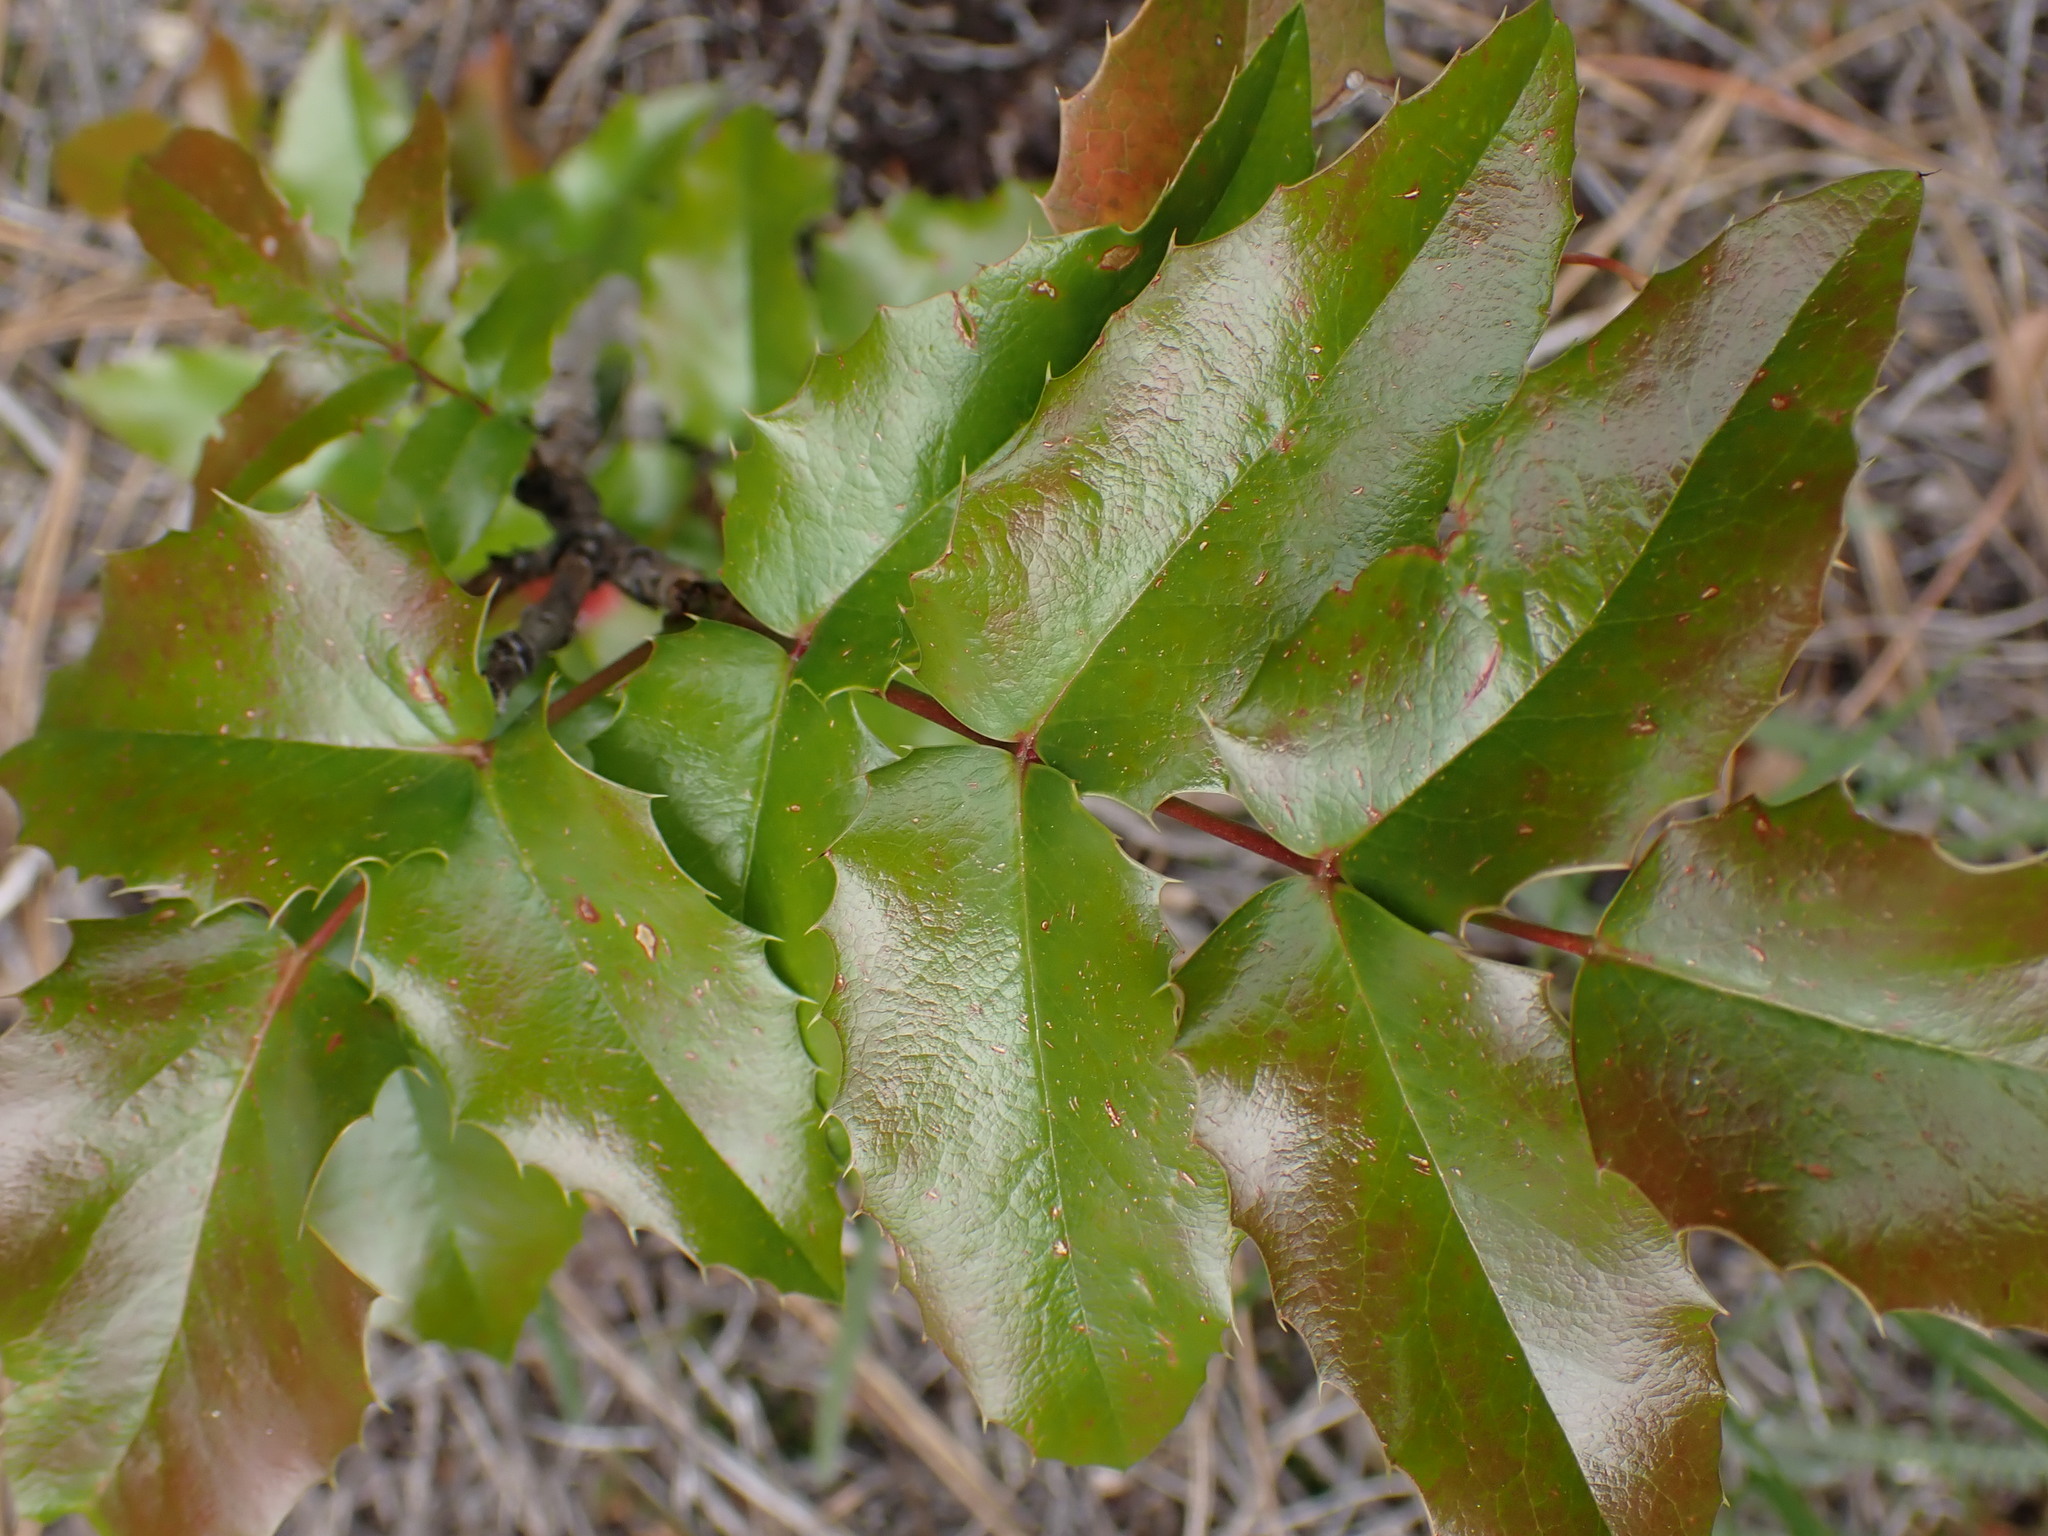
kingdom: Plantae
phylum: Tracheophyta
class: Magnoliopsida
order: Ranunculales
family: Berberidaceae
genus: Mahonia
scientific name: Mahonia aquifolium
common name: Oregon-grape
